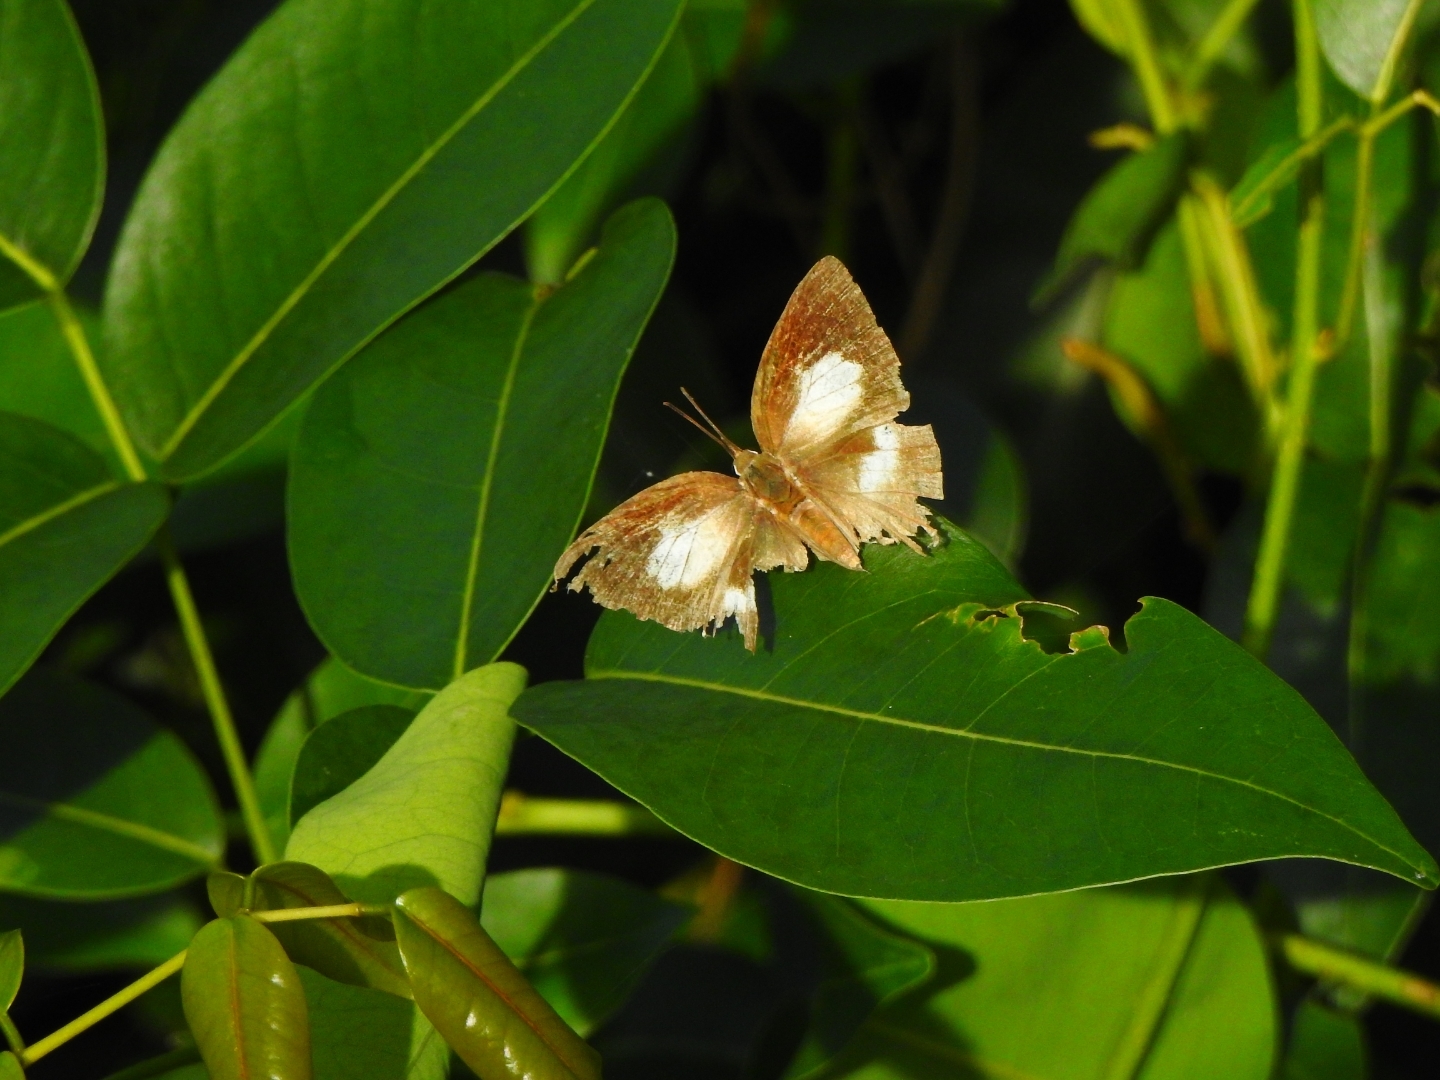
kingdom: Animalia
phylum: Arthropoda
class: Insecta
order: Lepidoptera
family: Lycaenidae
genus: Curetis
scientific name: Curetis thetis
